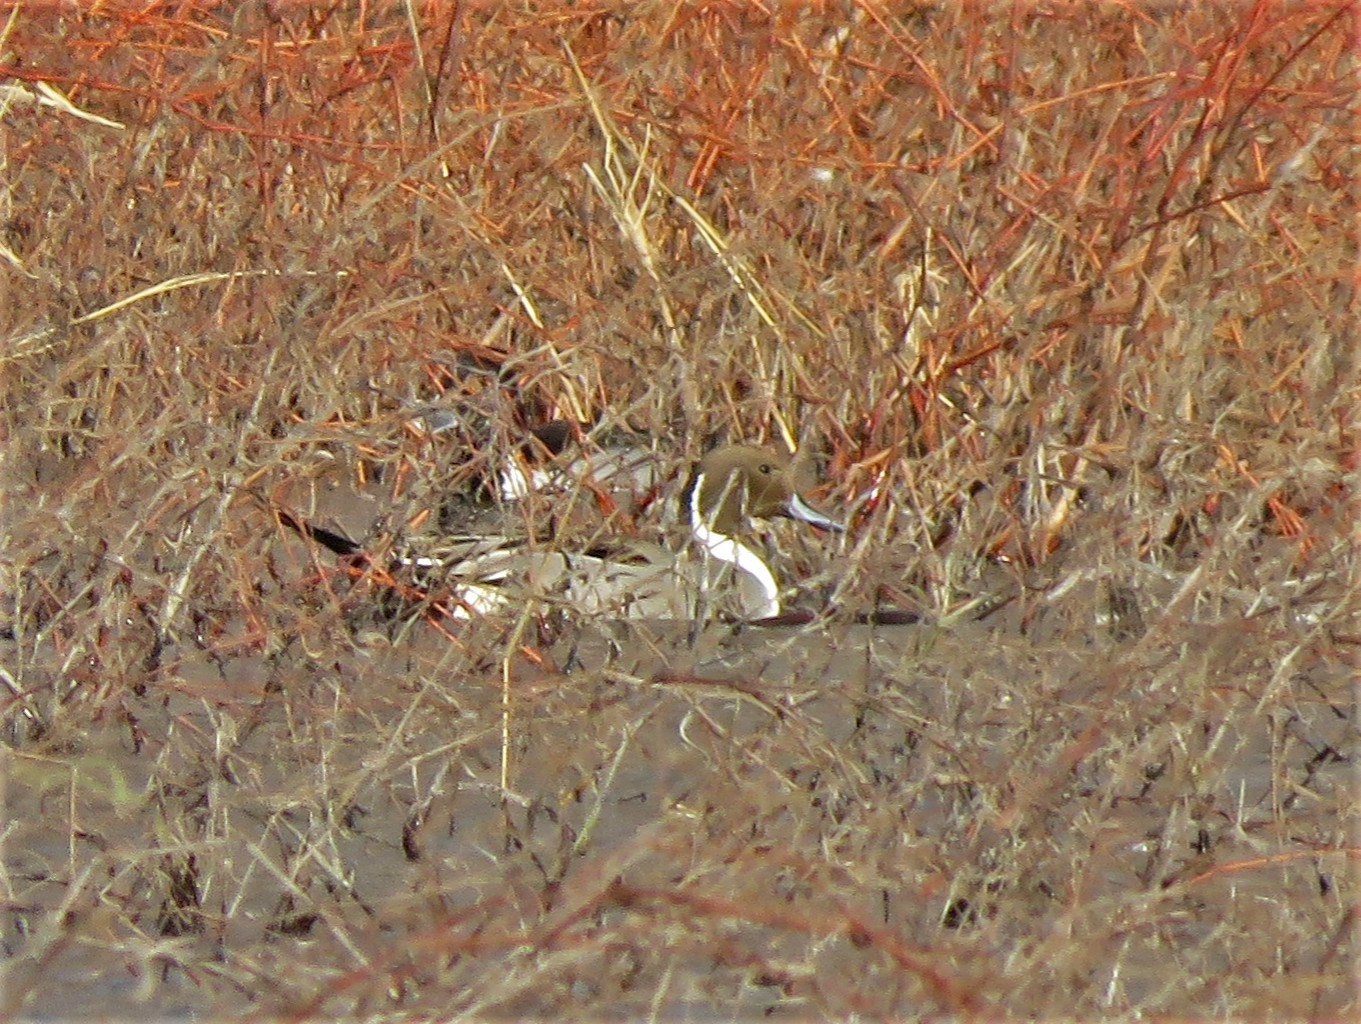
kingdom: Animalia
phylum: Chordata
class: Aves
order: Anseriformes
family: Anatidae
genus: Anas
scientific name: Anas acuta
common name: Northern pintail
